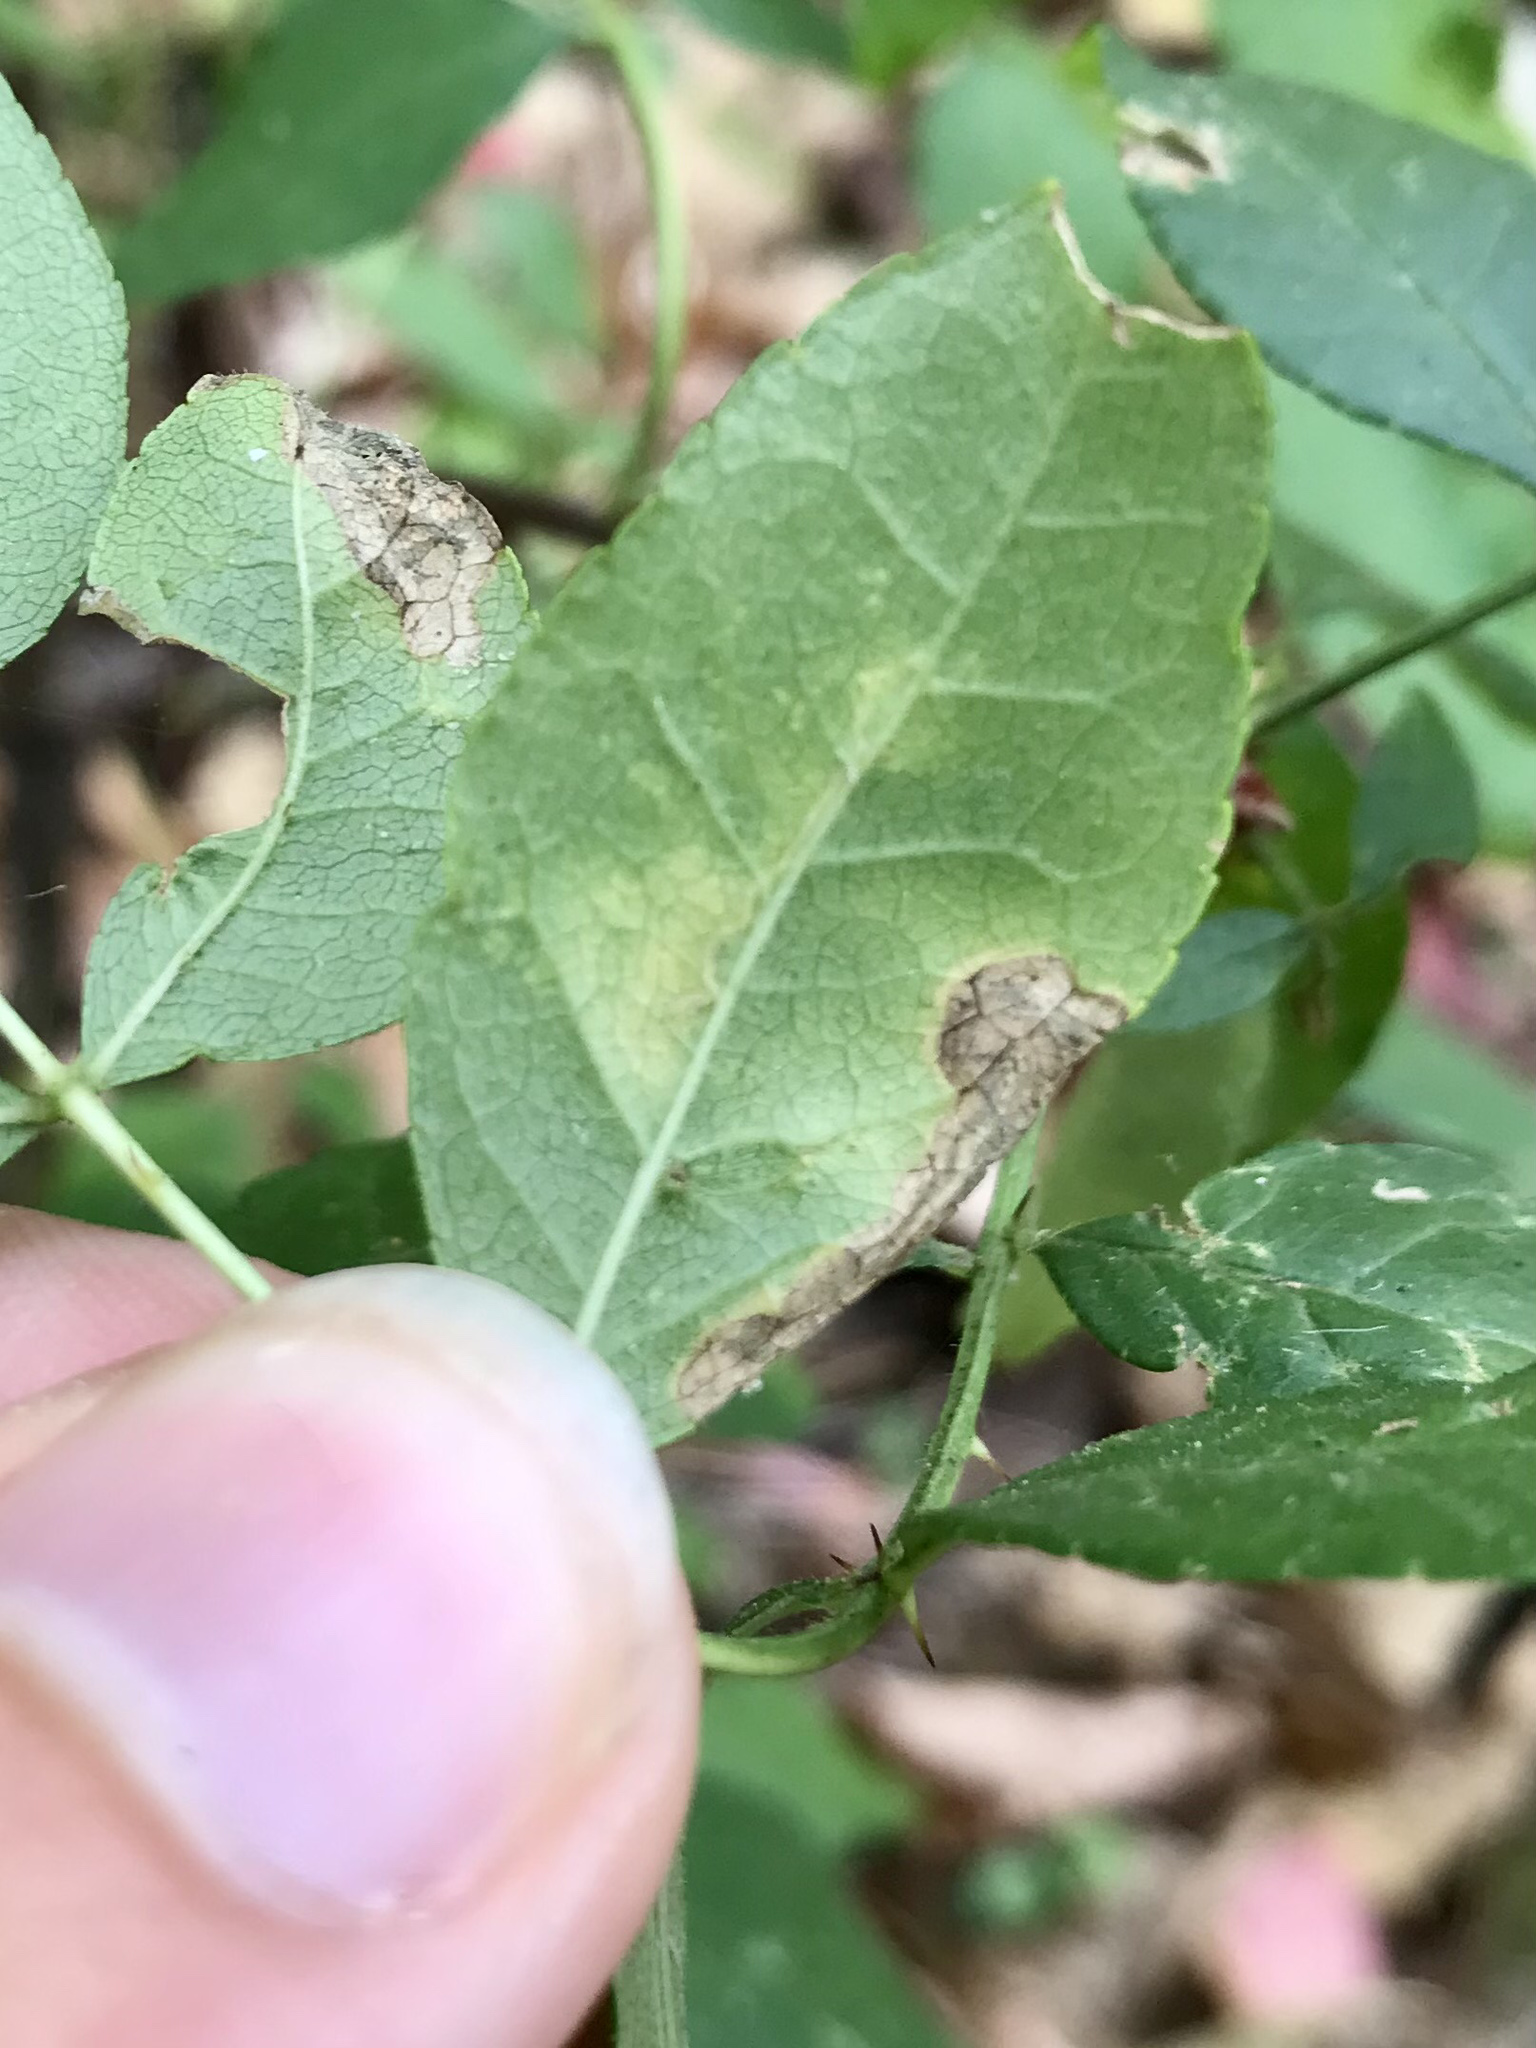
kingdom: Animalia
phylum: Arthropoda
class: Insecta
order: Lepidoptera
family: Nepticulidae
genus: Fomoria
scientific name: Fomoria pteliaeella
